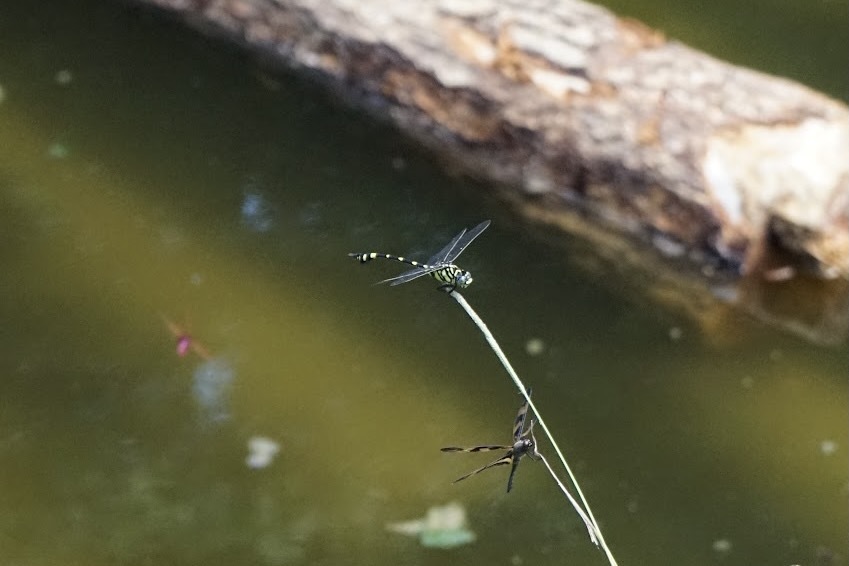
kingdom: Animalia
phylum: Arthropoda
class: Insecta
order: Odonata
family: Gomphidae
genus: Ictinogomphus
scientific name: Ictinogomphus pertinax
